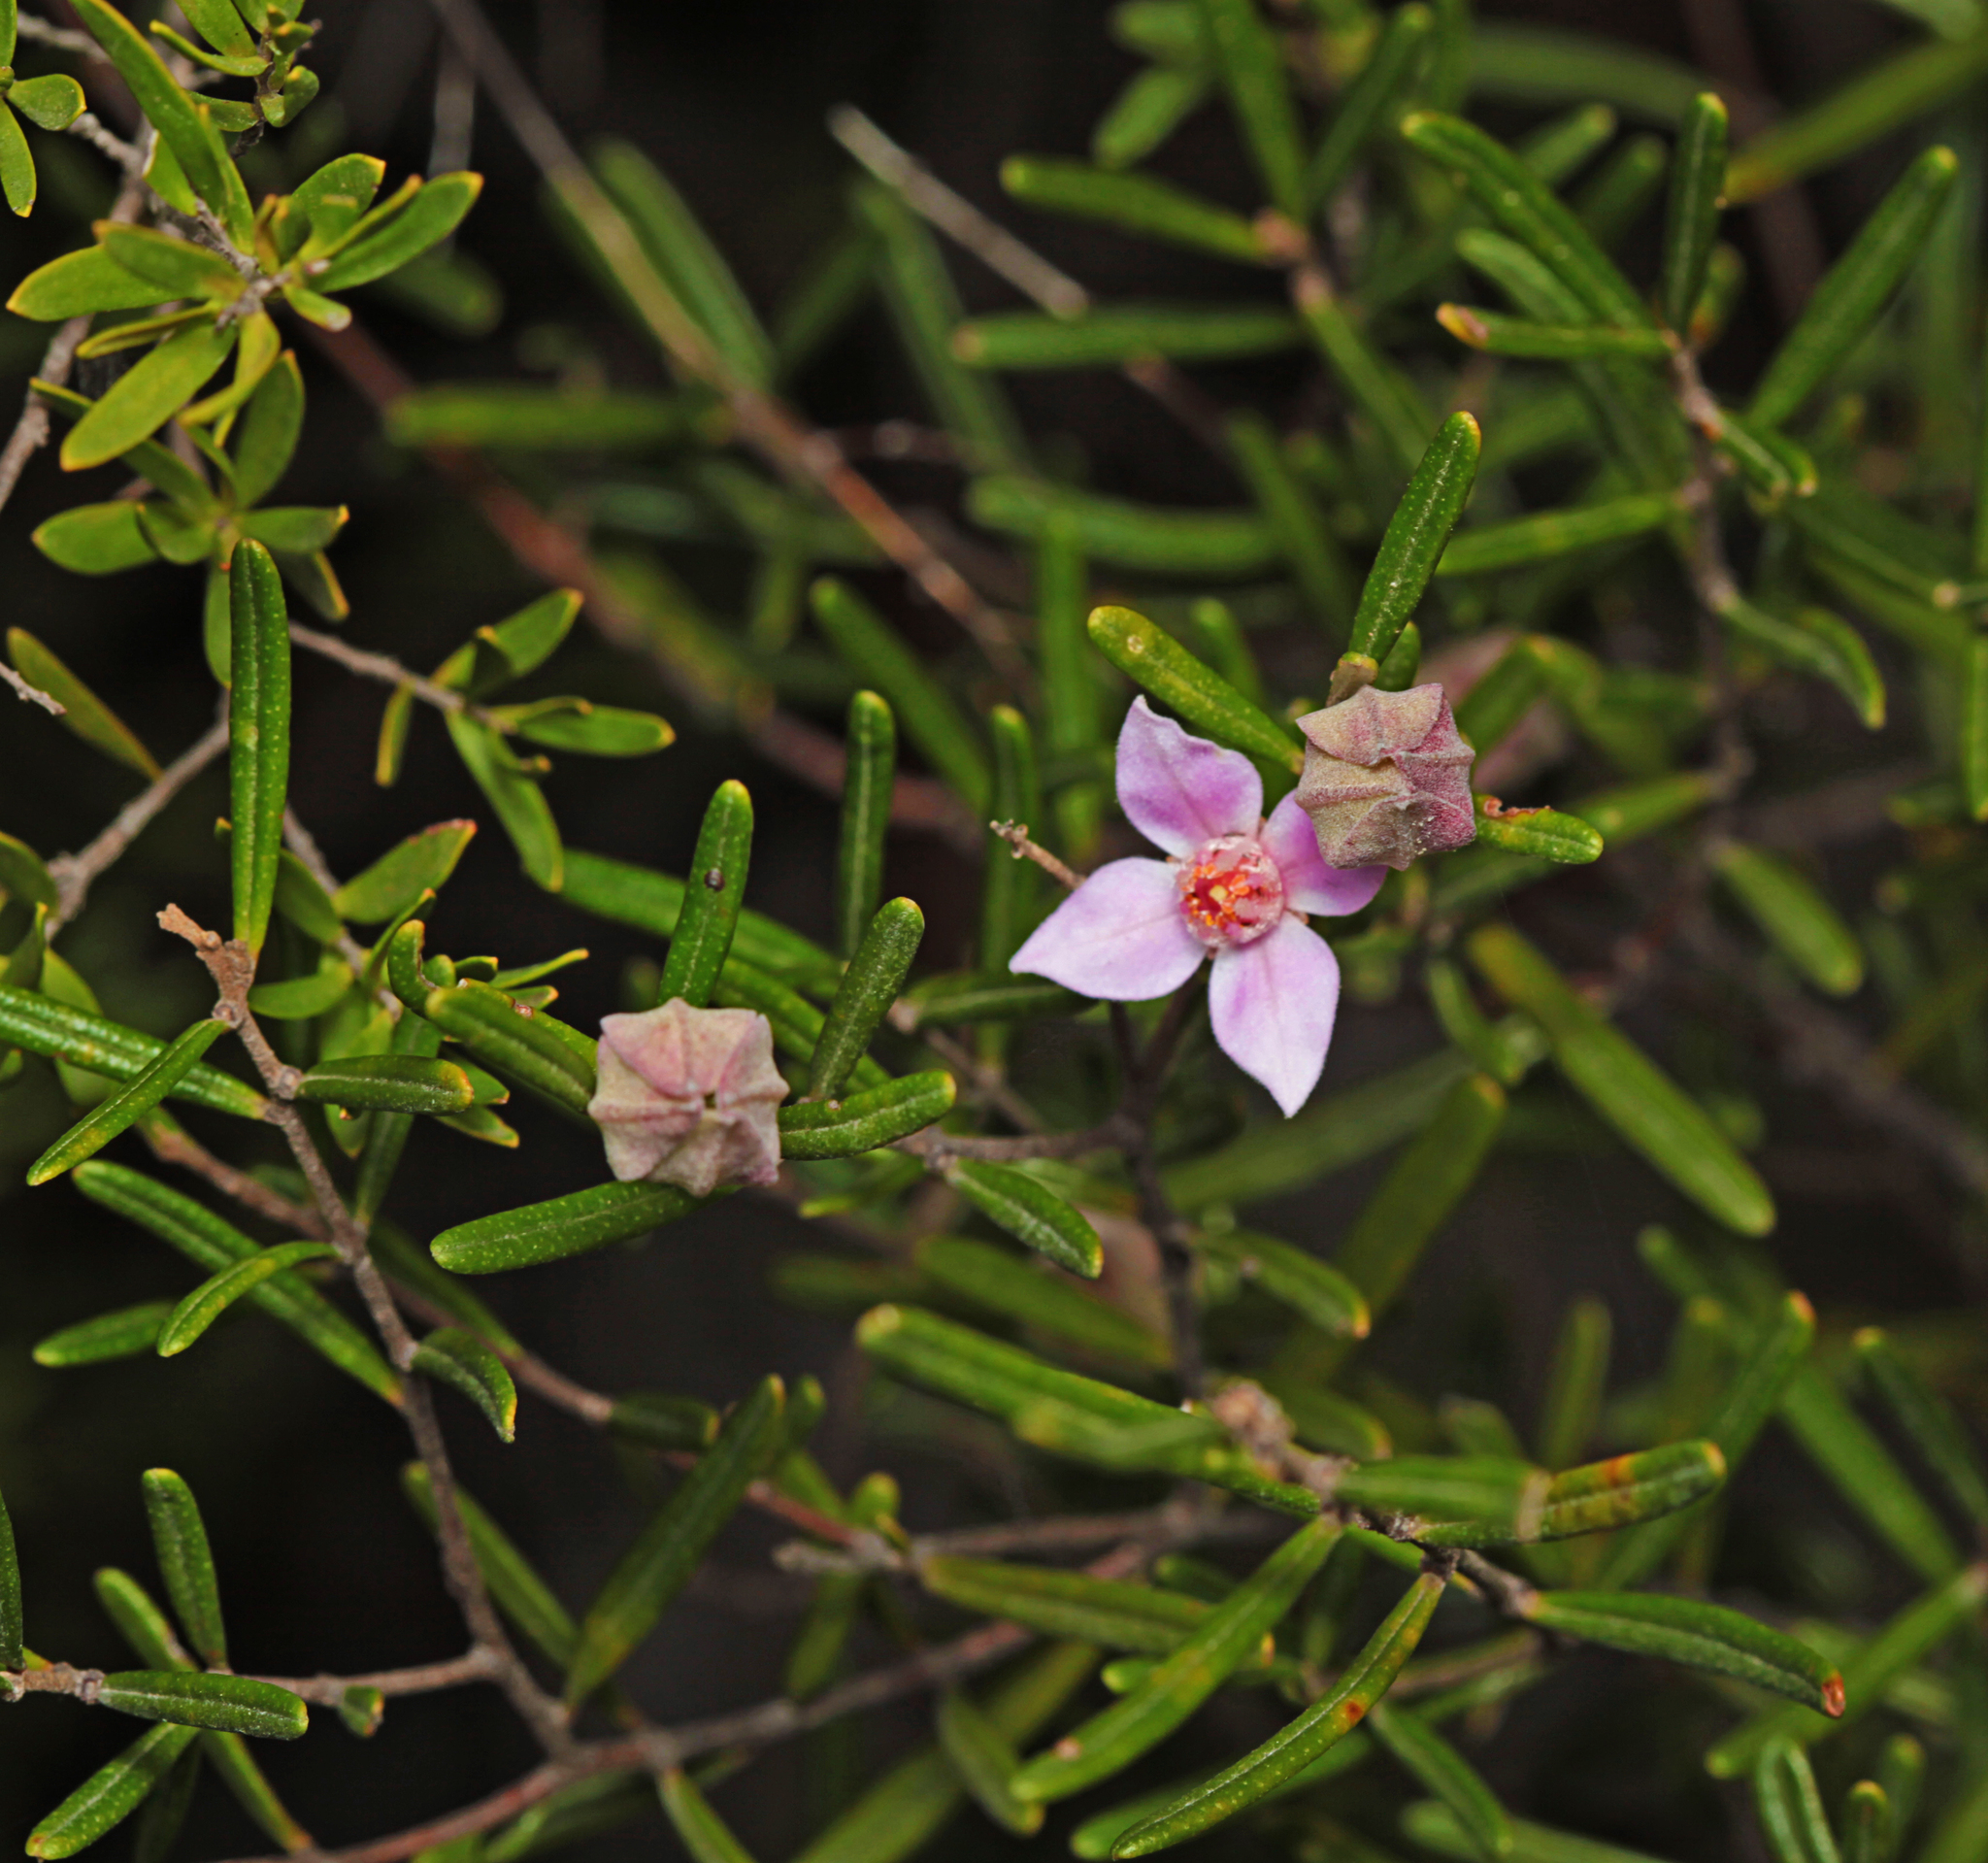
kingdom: Plantae
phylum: Tracheophyta
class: Magnoliopsida
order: Sapindales
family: Rutaceae
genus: Boronia
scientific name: Boronia rosmarinifolia
